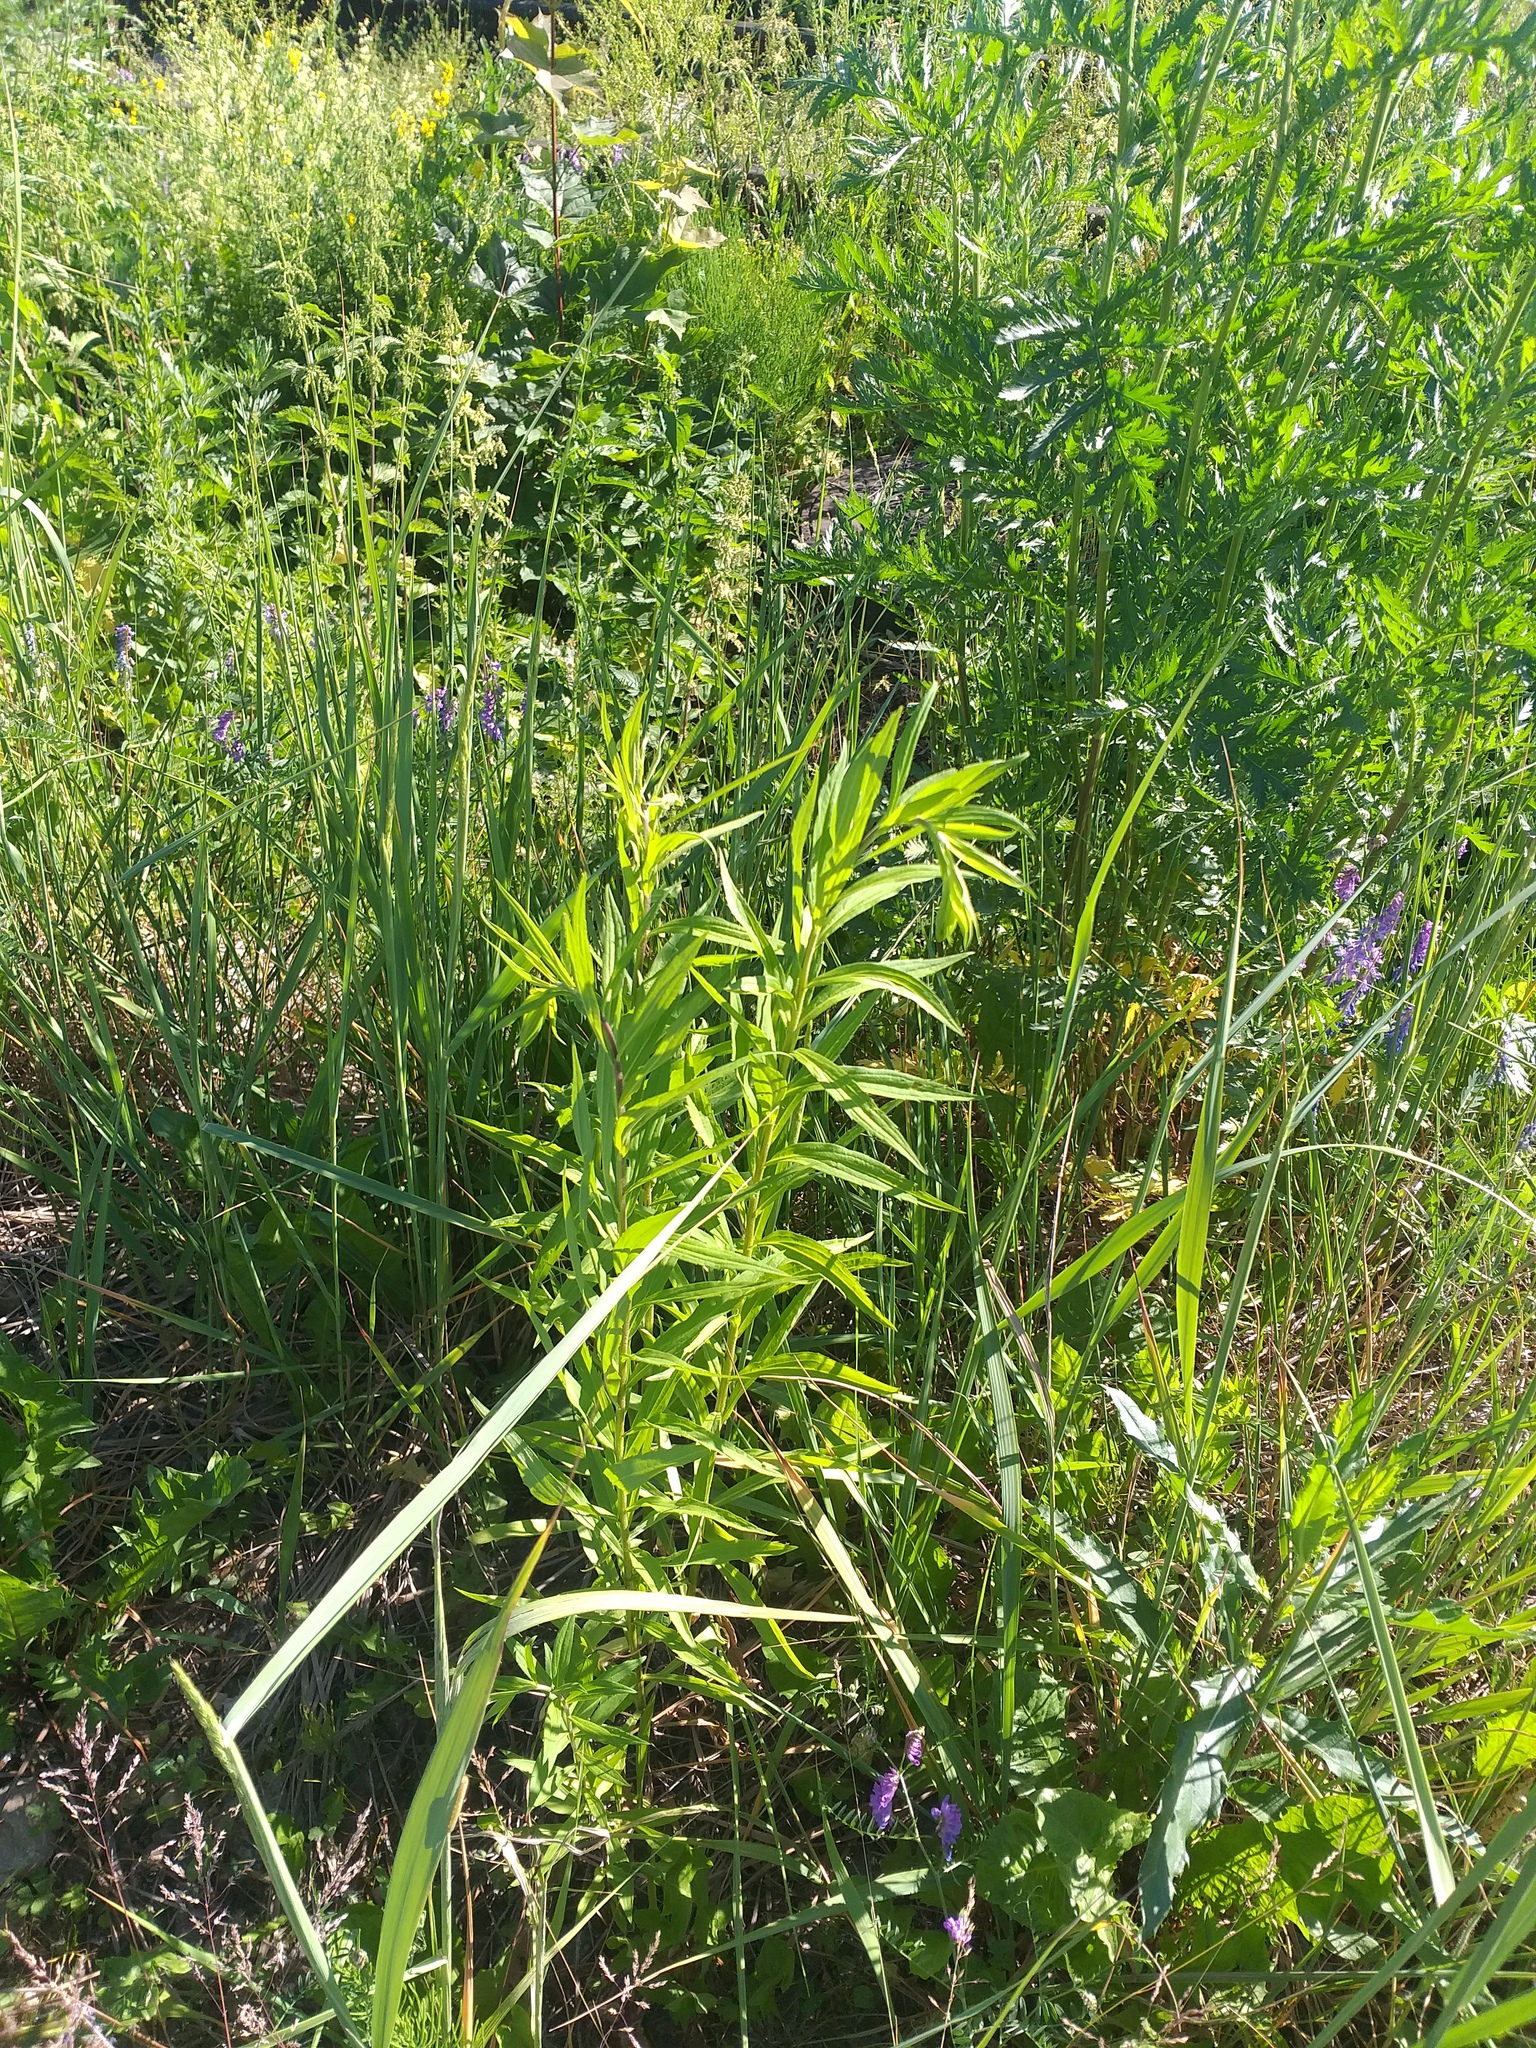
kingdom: Plantae
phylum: Tracheophyta
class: Magnoliopsida
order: Asterales
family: Asteraceae
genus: Solidago
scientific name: Solidago canadensis
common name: Canada goldenrod
